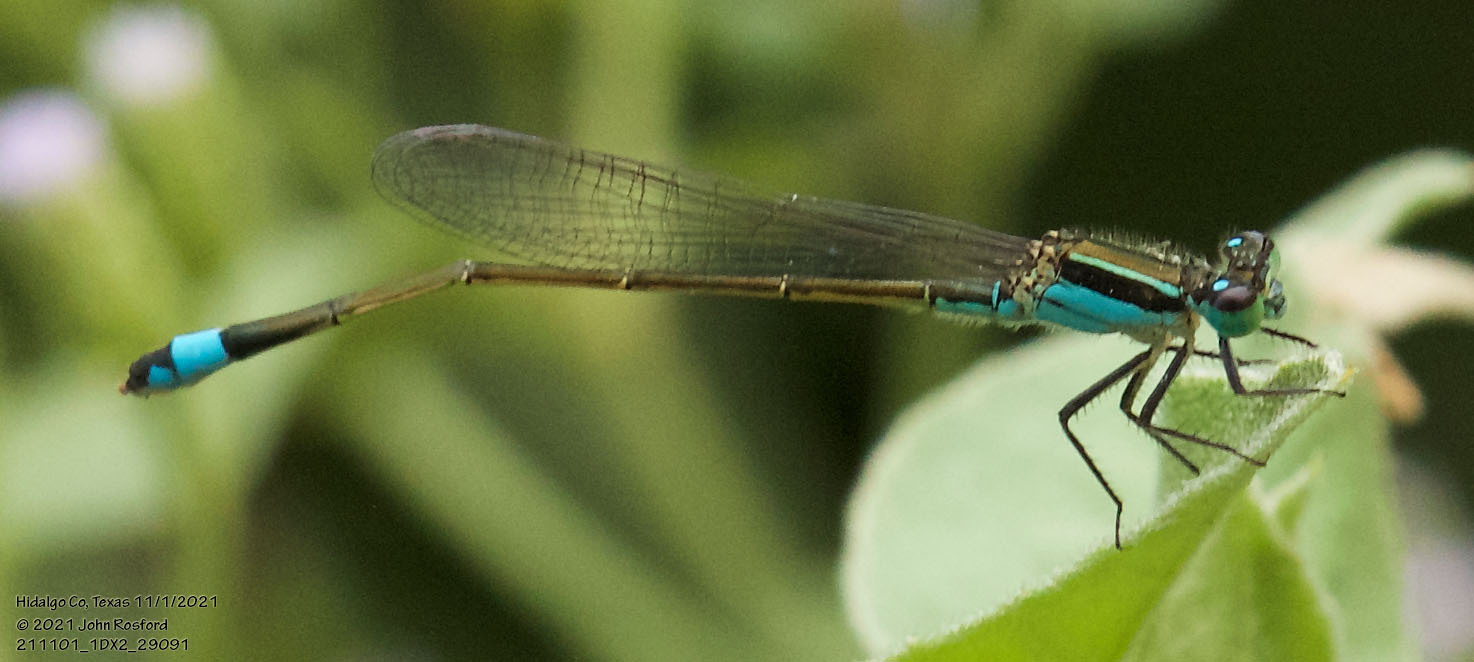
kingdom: Animalia
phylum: Arthropoda
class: Insecta
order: Odonata
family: Coenagrionidae
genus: Ischnura
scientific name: Ischnura ramburii
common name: Rambur's forktail
